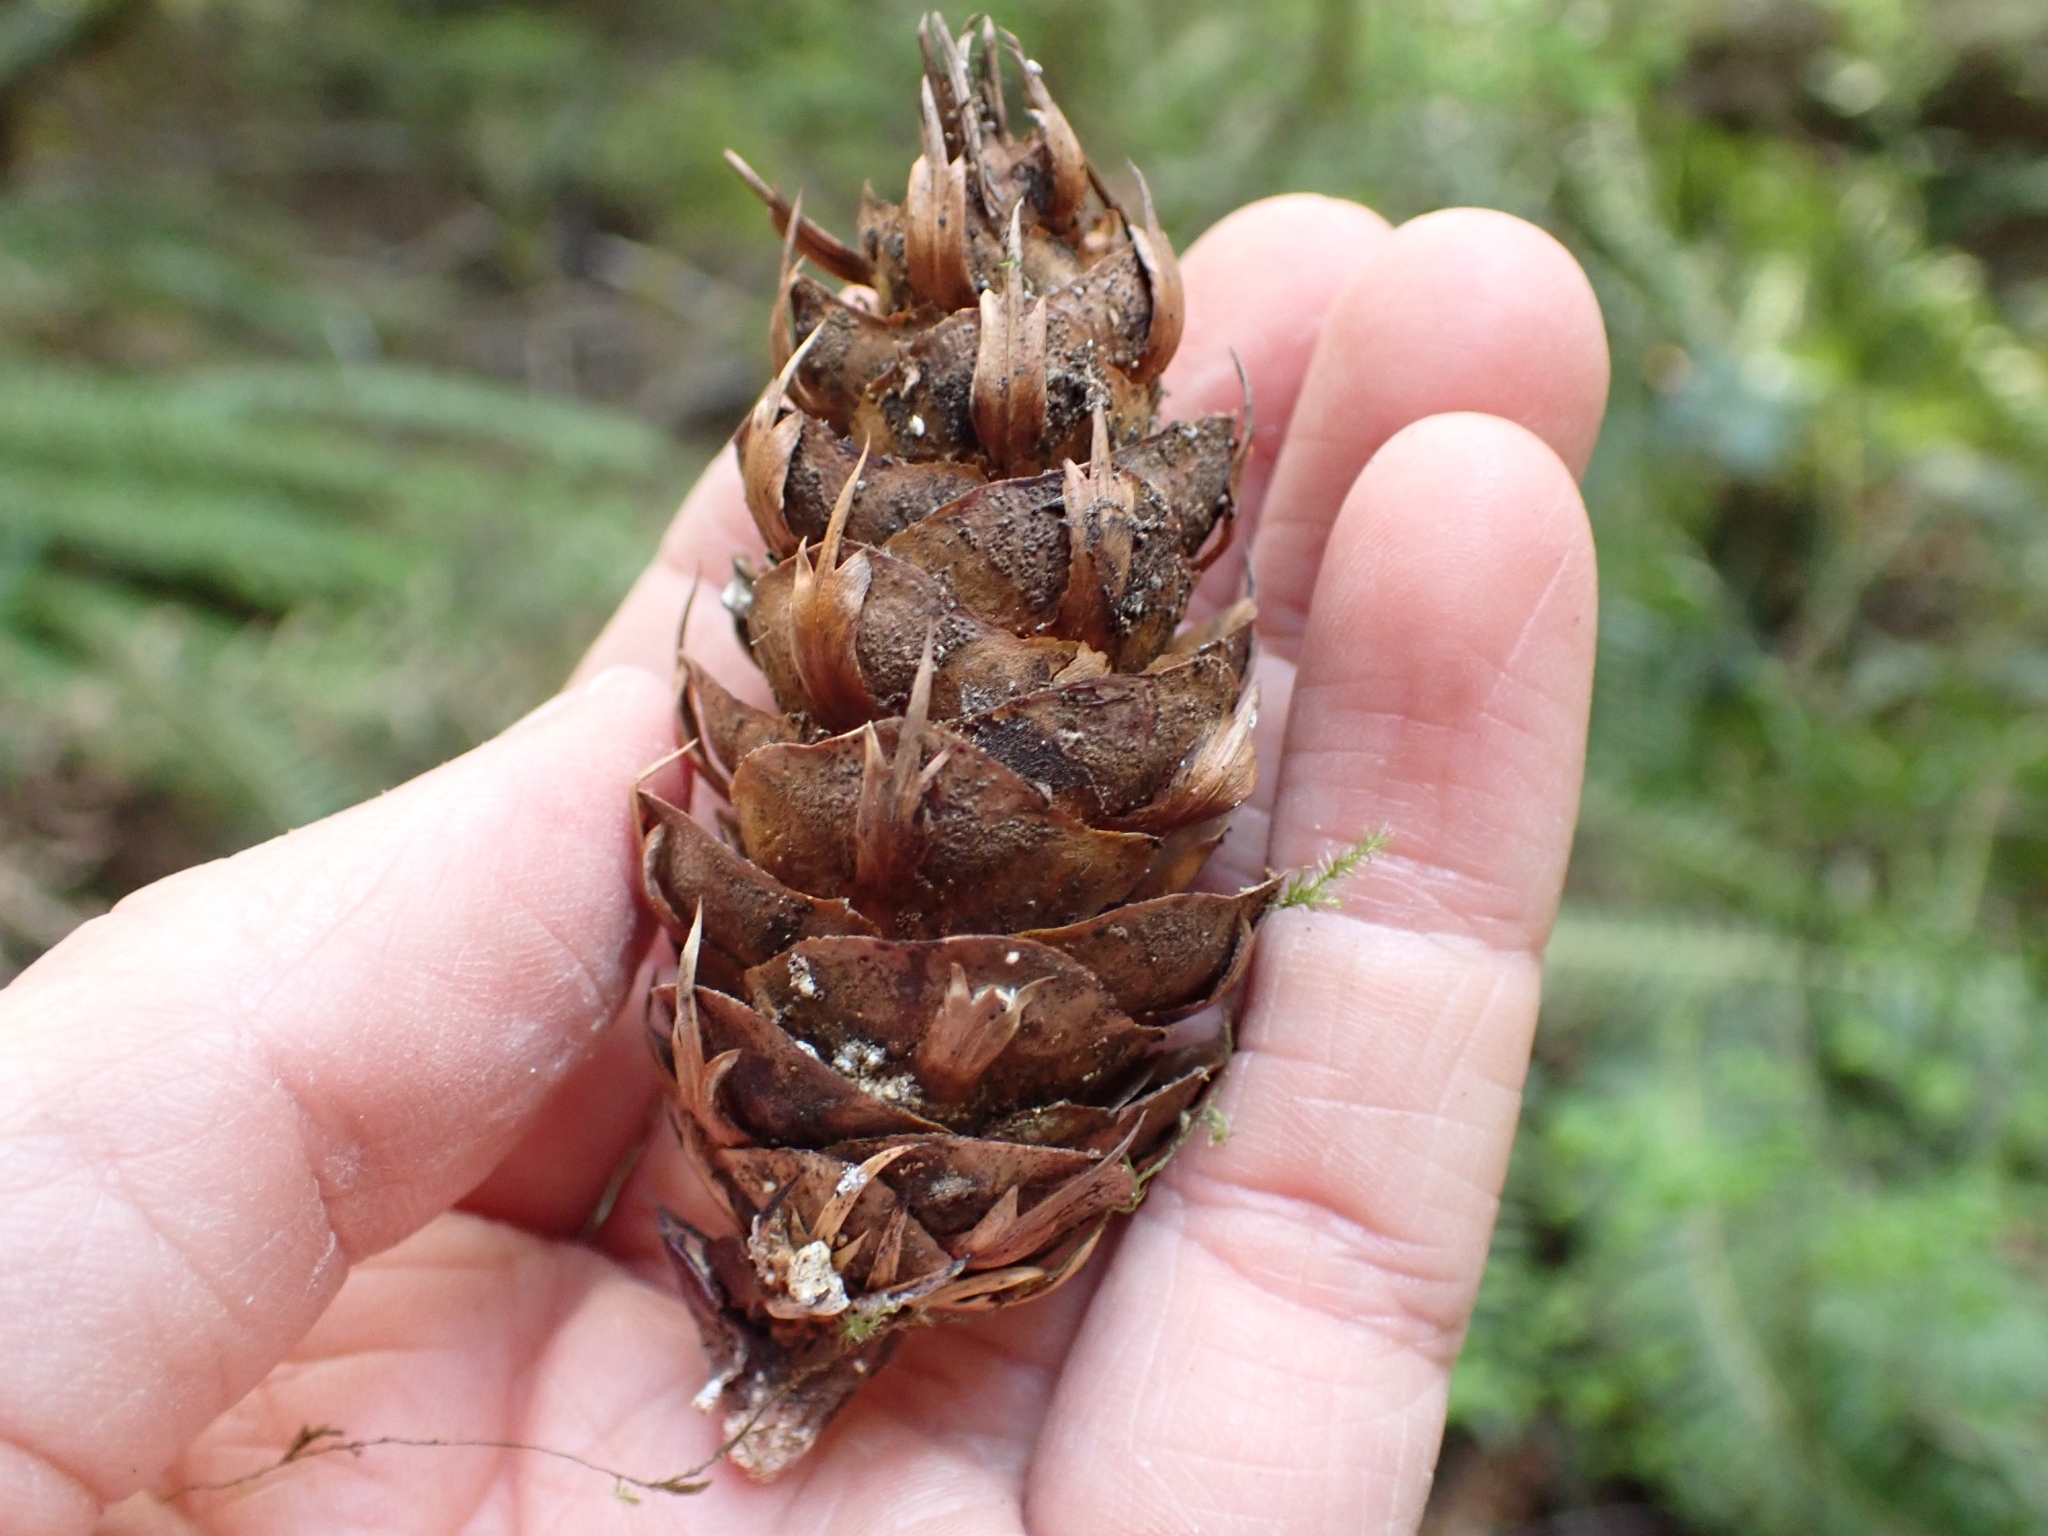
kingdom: Plantae
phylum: Tracheophyta
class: Pinopsida
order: Pinales
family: Pinaceae
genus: Pseudotsuga
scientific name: Pseudotsuga menziesii
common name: Douglas fir
